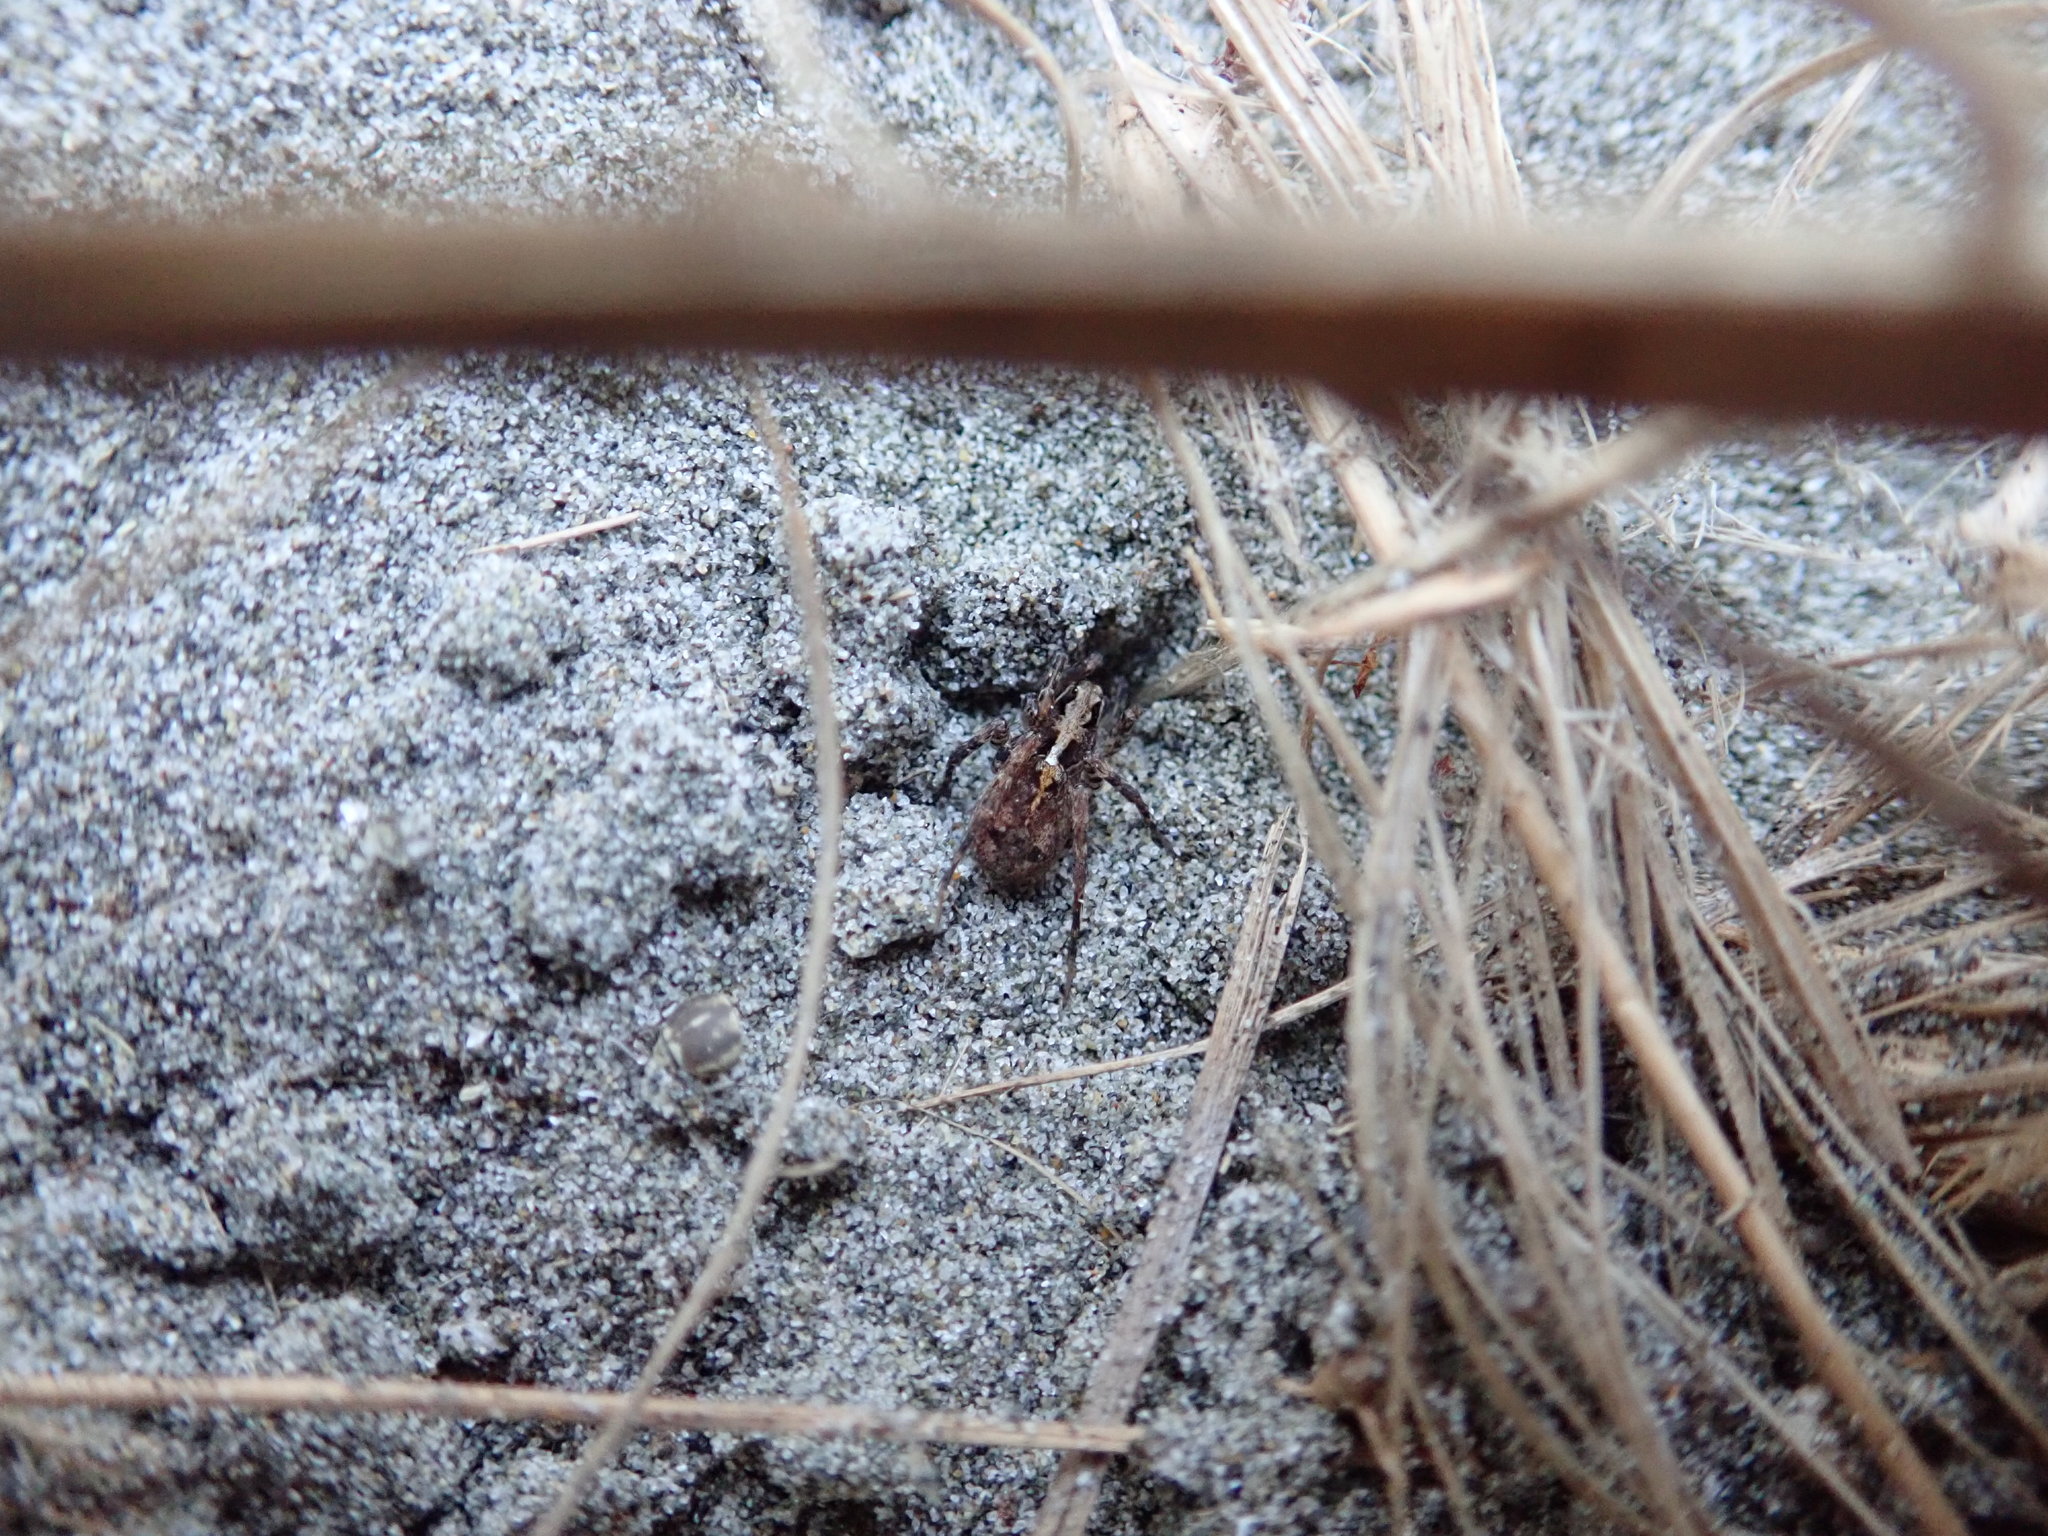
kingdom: Animalia
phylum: Arthropoda
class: Arachnida
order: Araneae
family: Lycosidae
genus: Anoteropsis
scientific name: Anoteropsis hilaris
